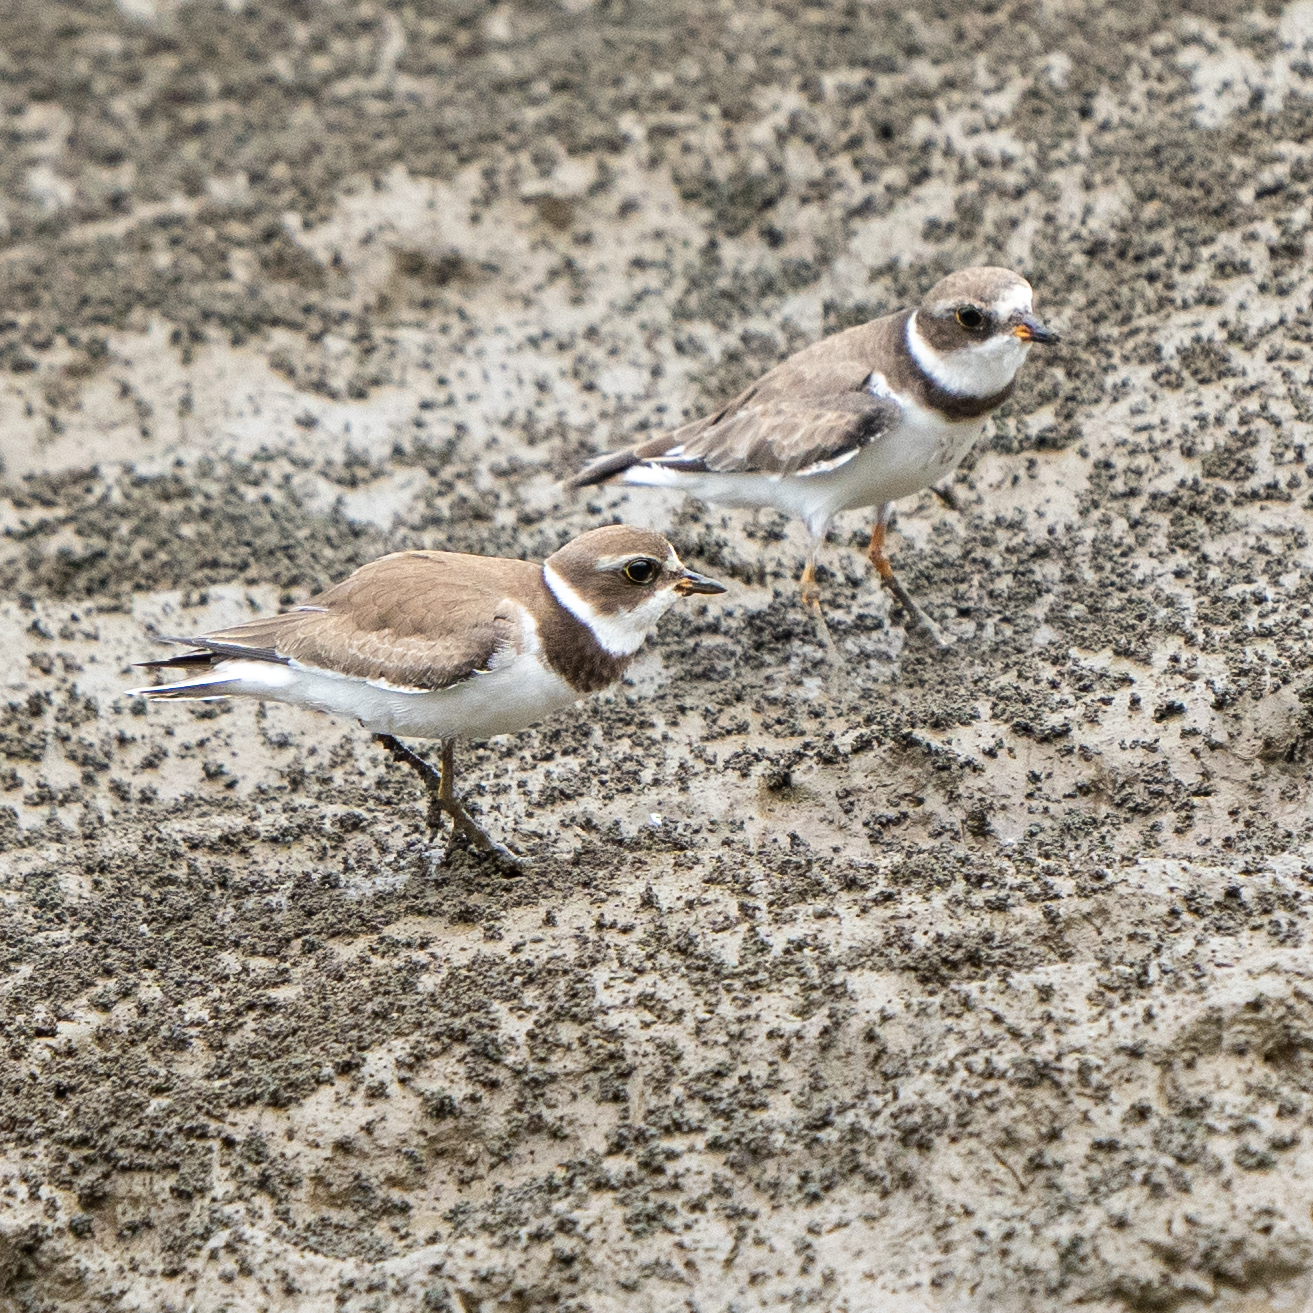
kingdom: Animalia
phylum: Chordata
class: Aves
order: Charadriiformes
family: Charadriidae
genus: Charadrius
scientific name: Charadrius semipalmatus
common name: Semipalmated plover
